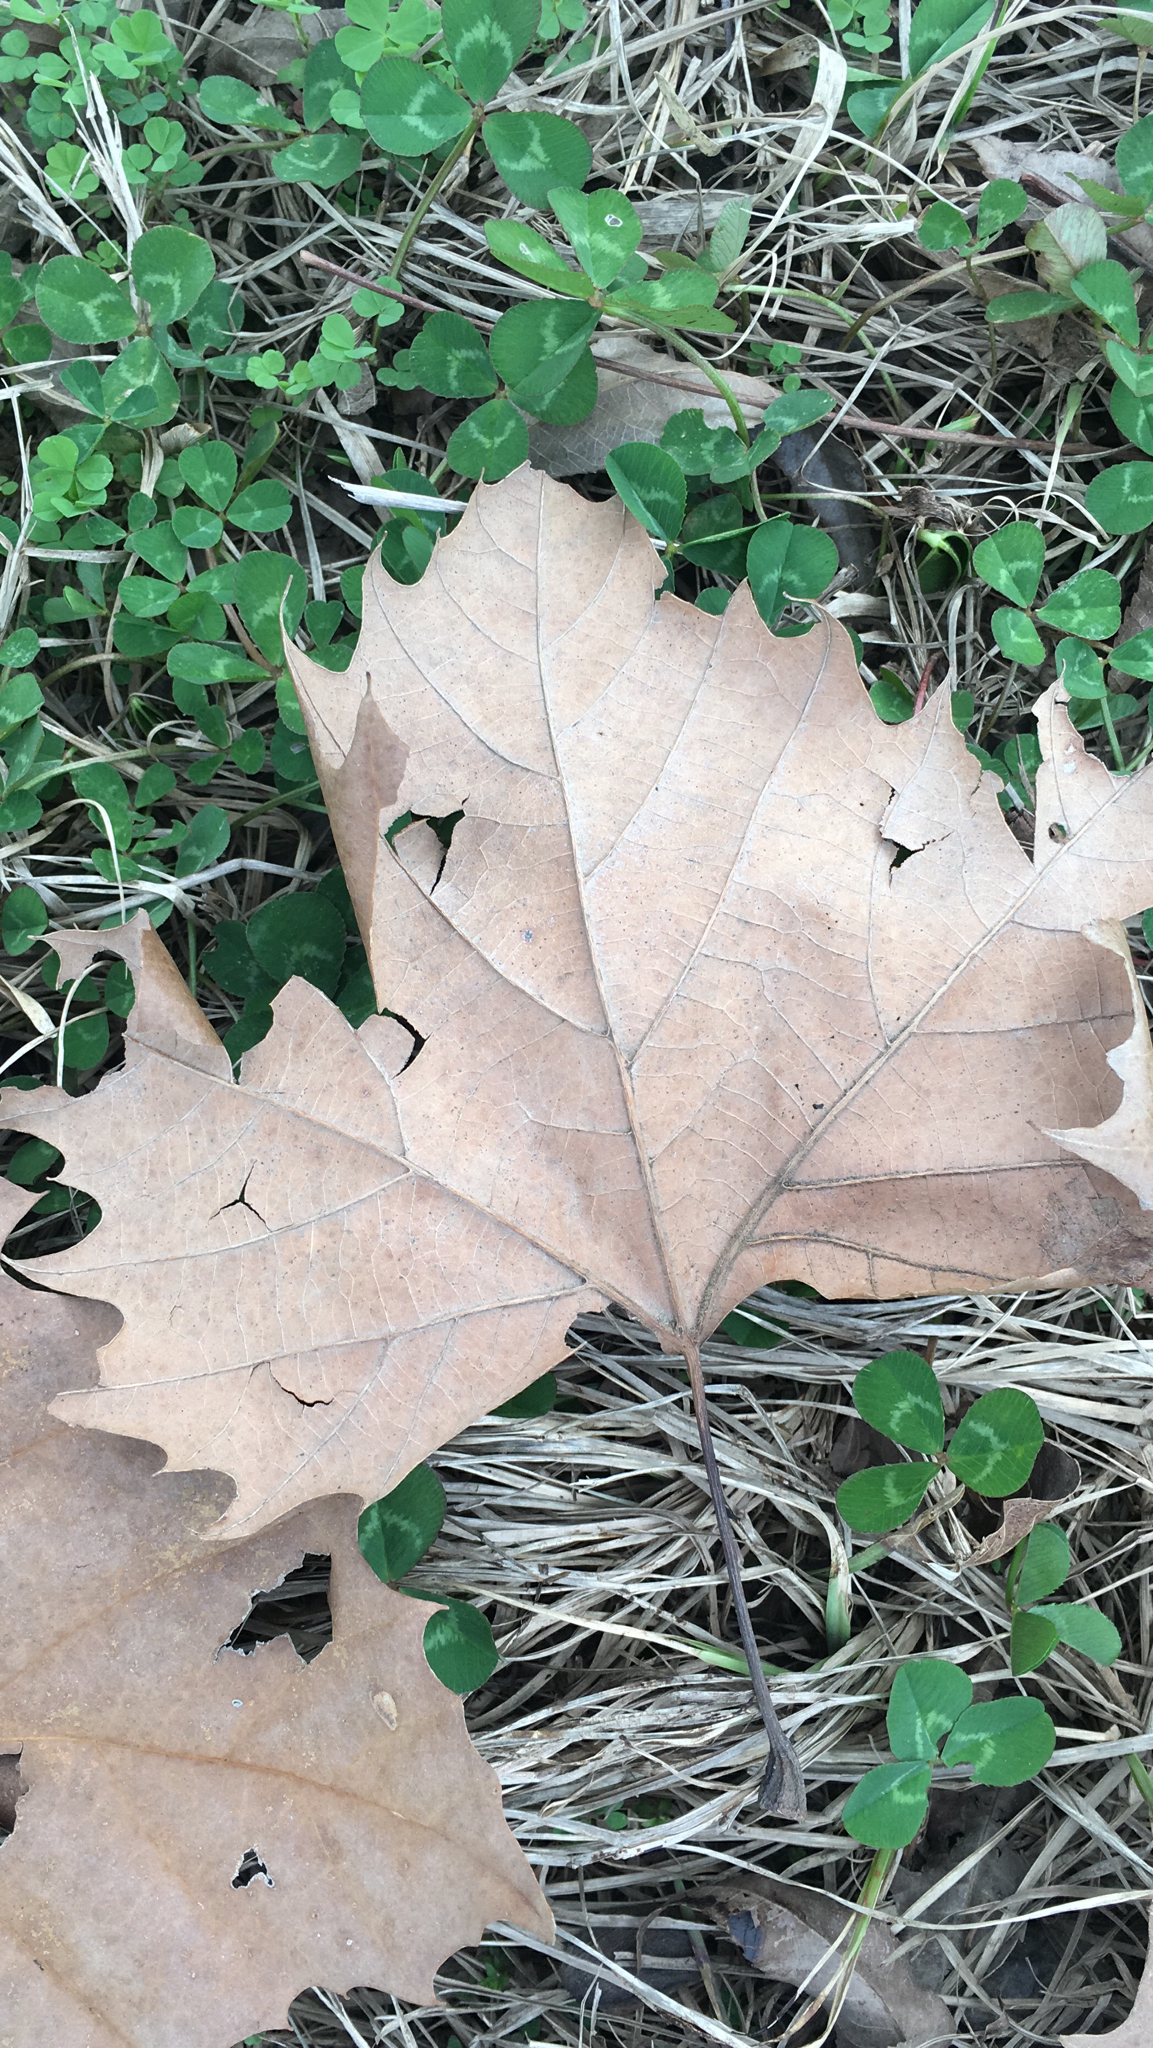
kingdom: Plantae
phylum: Tracheophyta
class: Magnoliopsida
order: Proteales
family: Platanaceae
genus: Platanus
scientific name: Platanus occidentalis
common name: American sycamore
